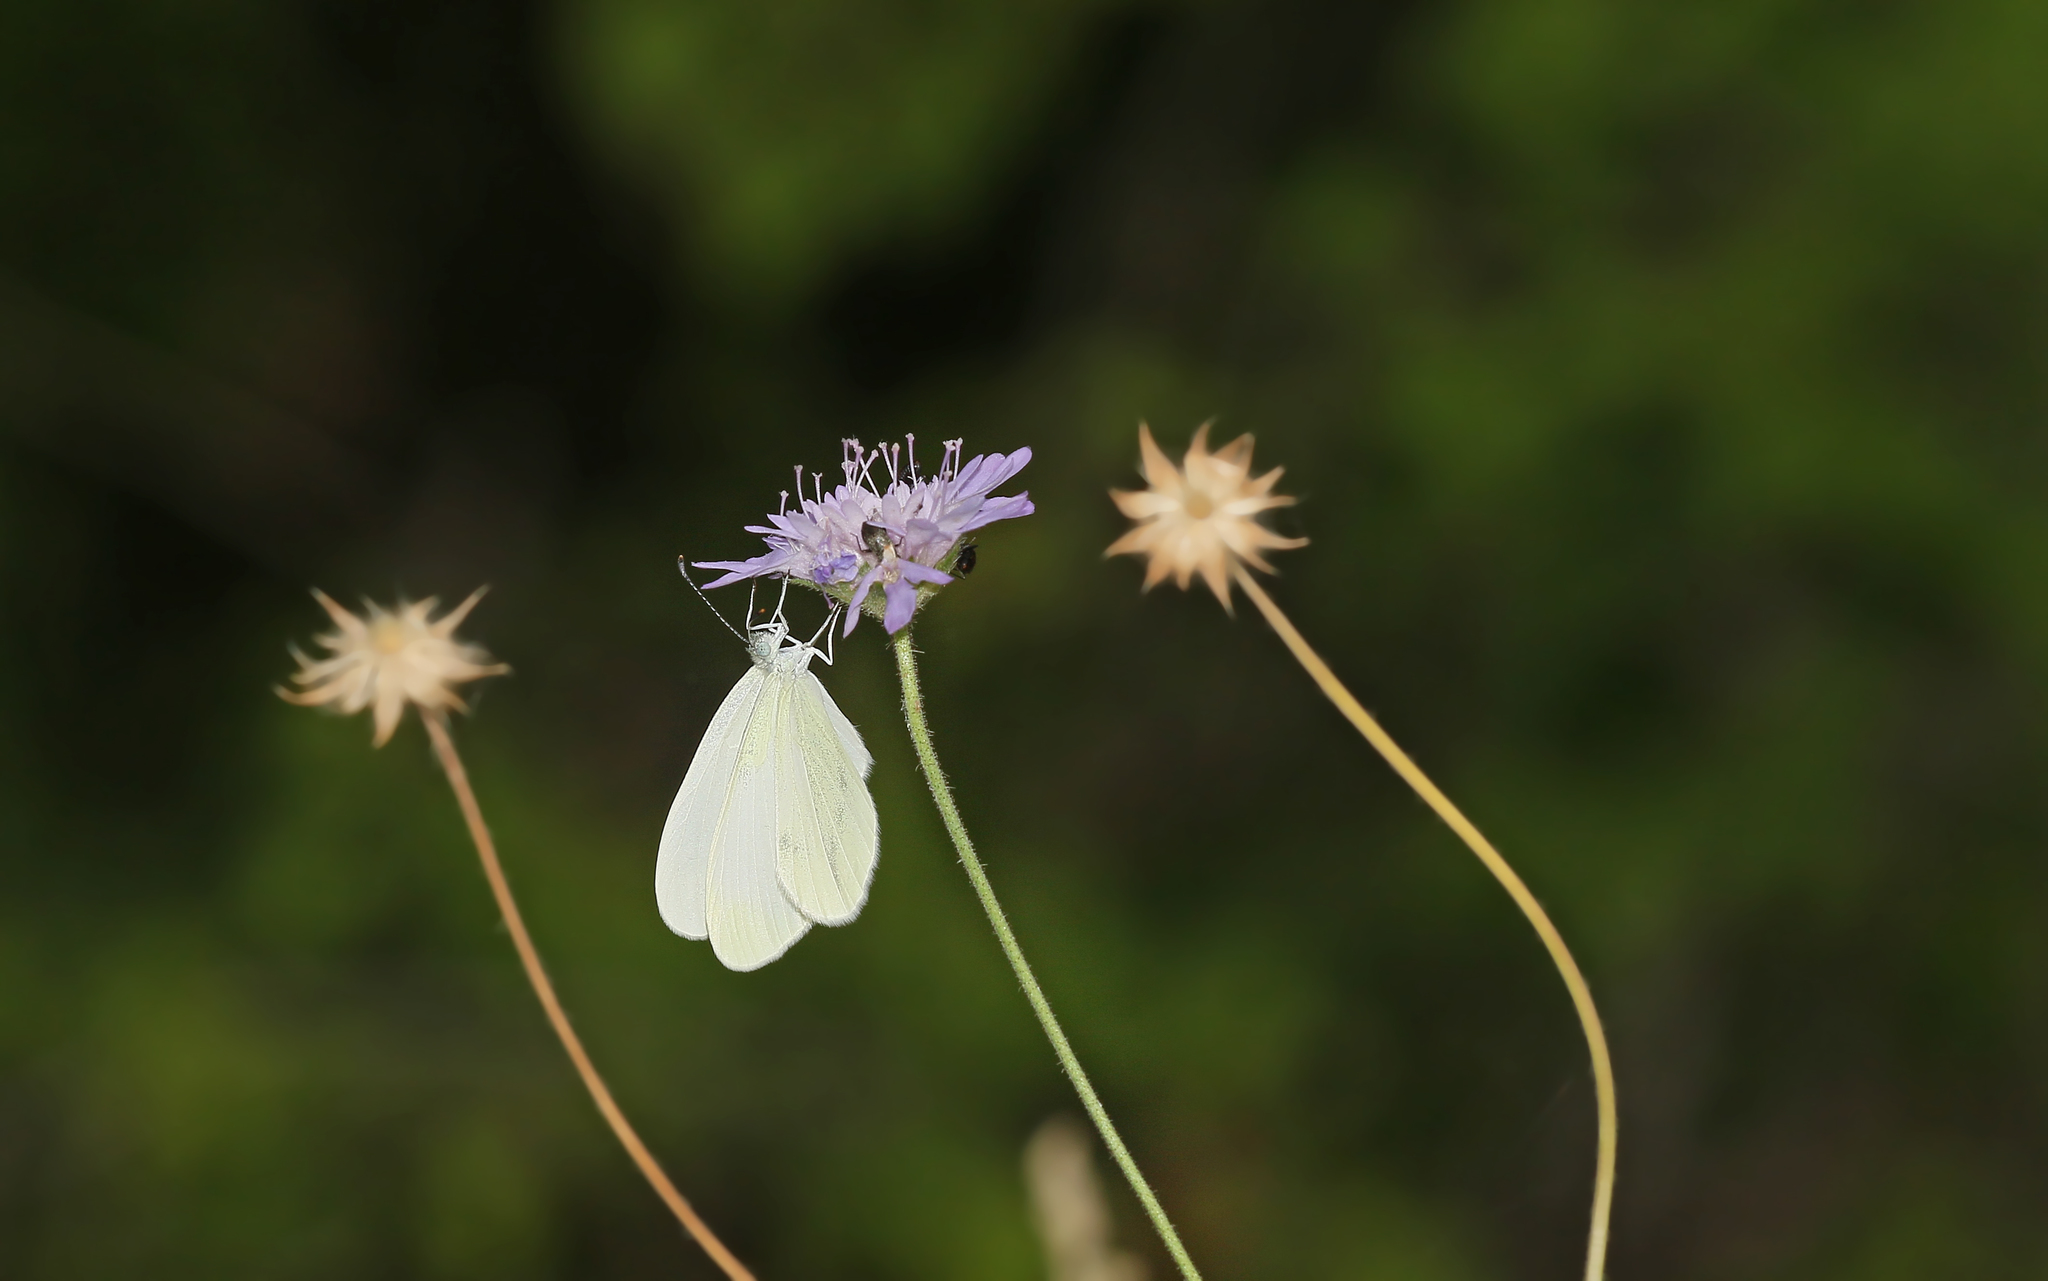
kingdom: Animalia
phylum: Arthropoda
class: Insecta
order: Lepidoptera
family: Pieridae
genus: Leptidea
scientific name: Leptidea sinapis
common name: Wood white
